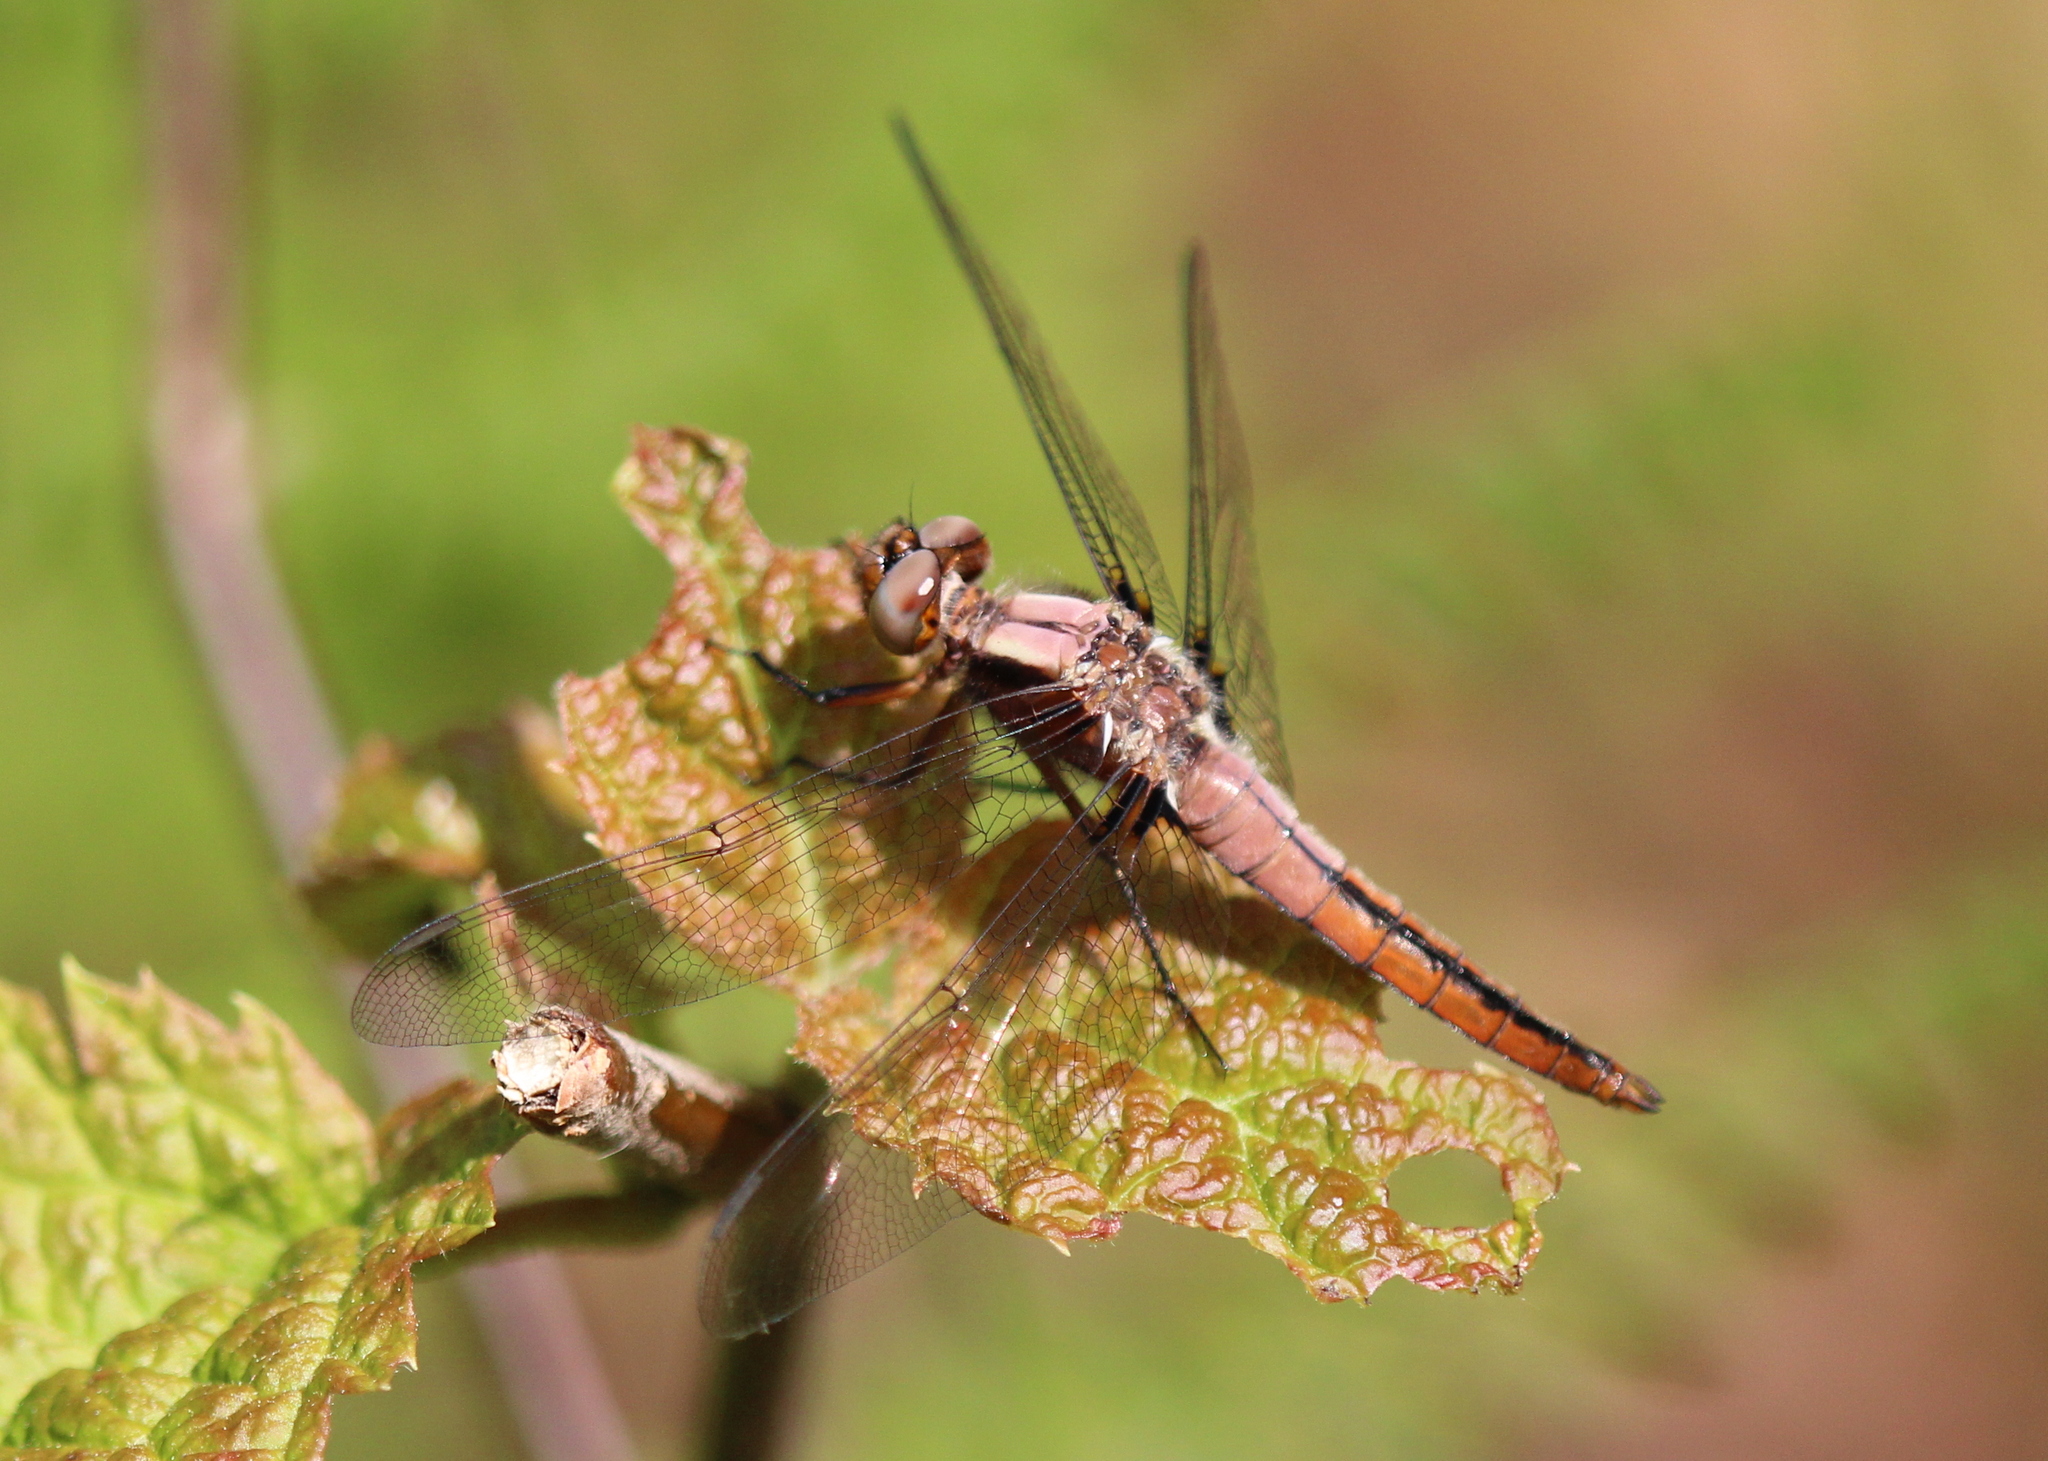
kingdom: Animalia
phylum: Arthropoda
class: Insecta
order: Odonata
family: Libellulidae
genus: Ladona
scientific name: Ladona julia
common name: Chalk-fronted corporal
